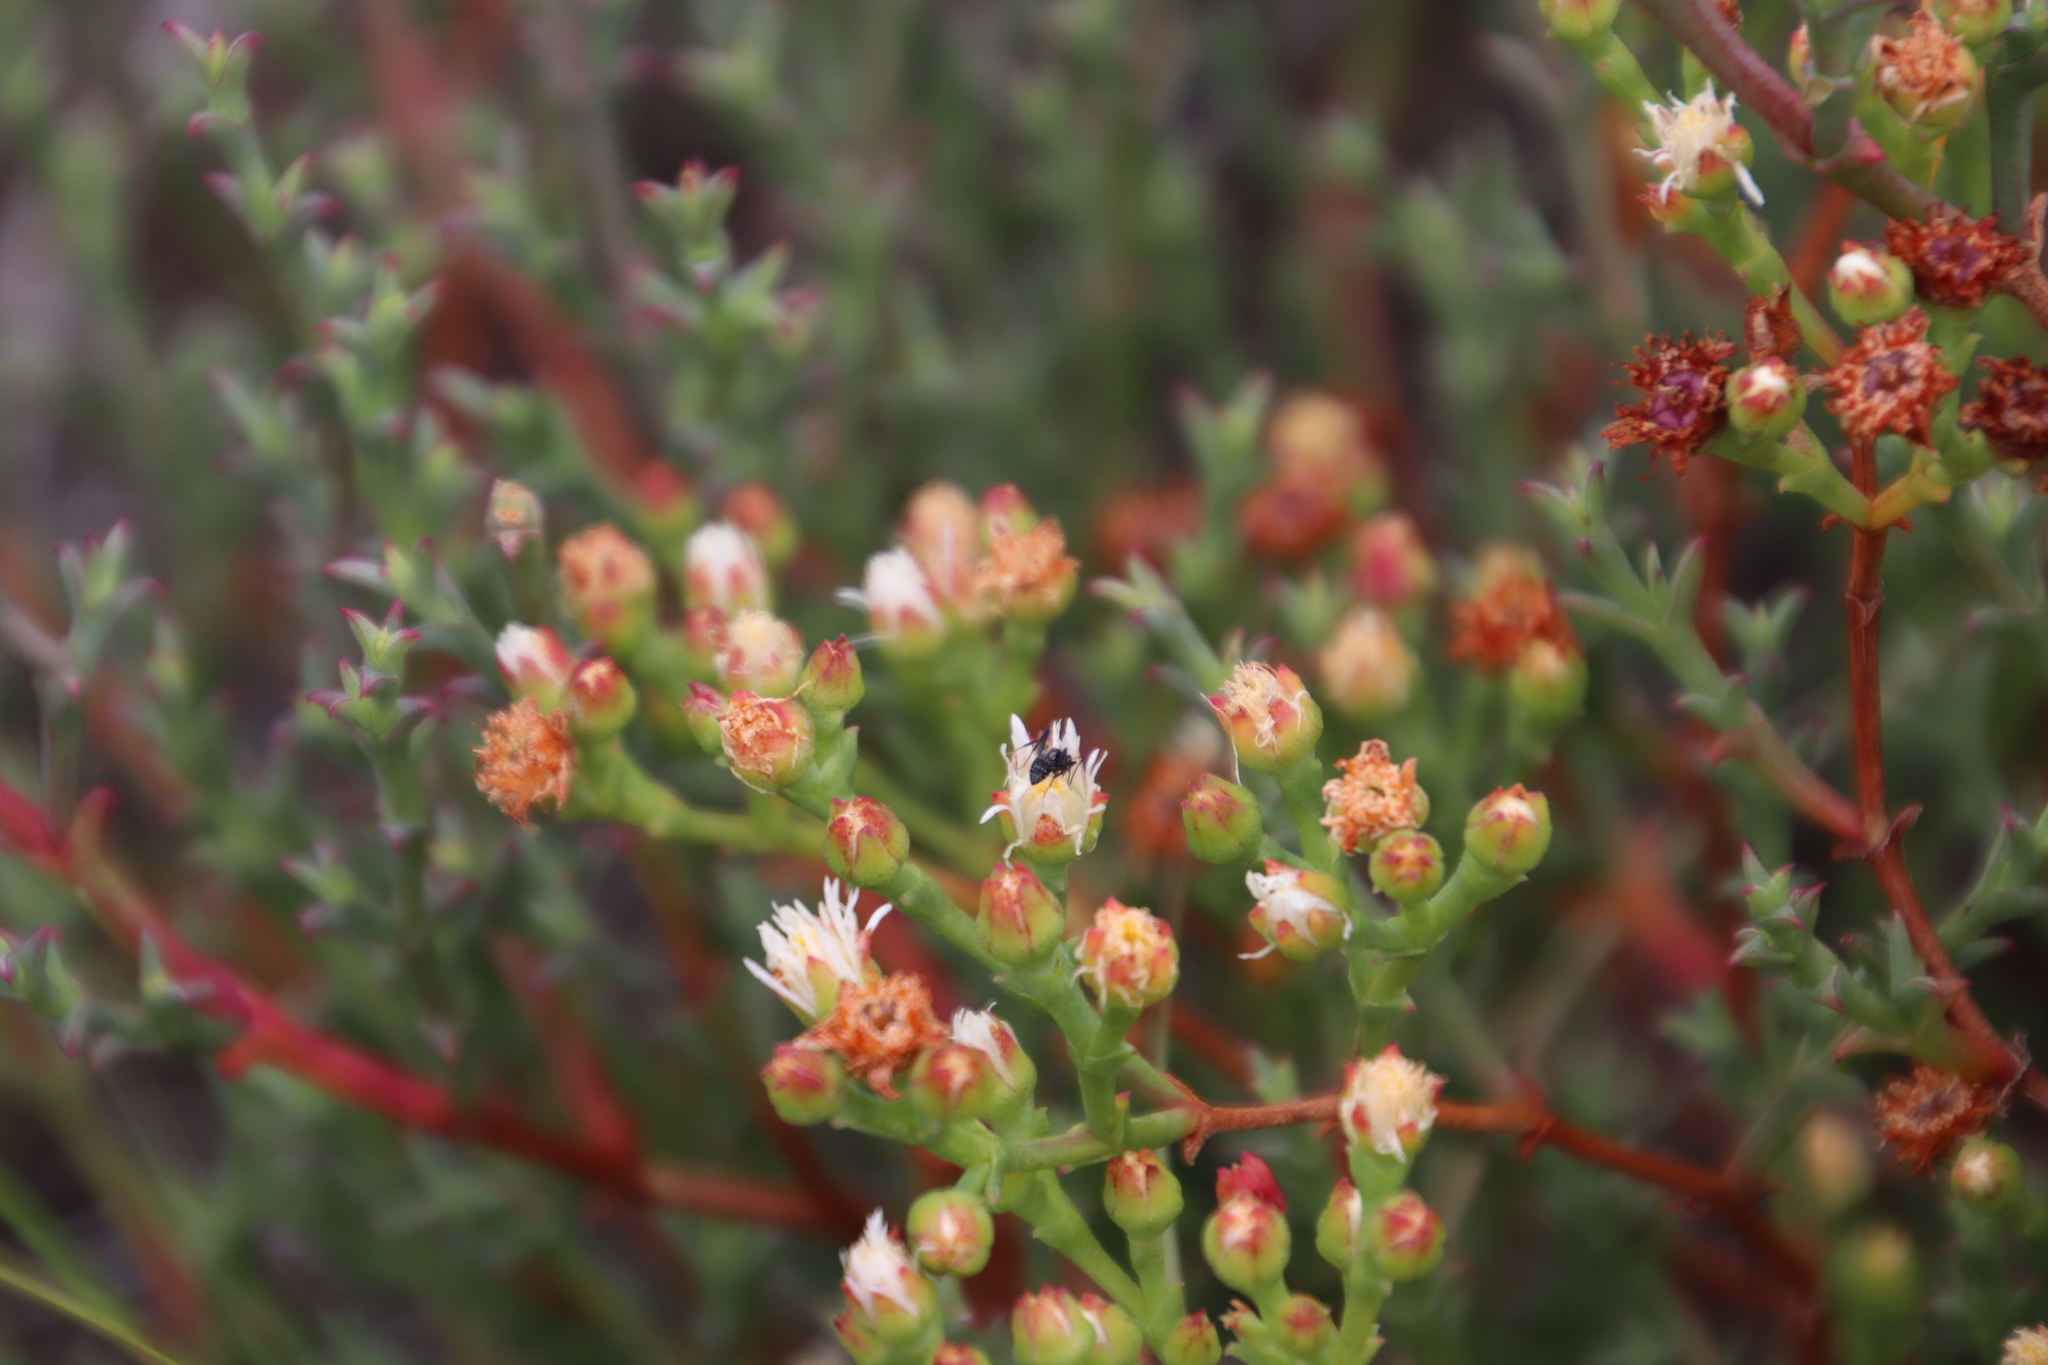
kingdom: Plantae
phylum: Tracheophyta
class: Magnoliopsida
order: Caryophyllales
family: Aizoaceae
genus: Ruschia
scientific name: Ruschia tenella
